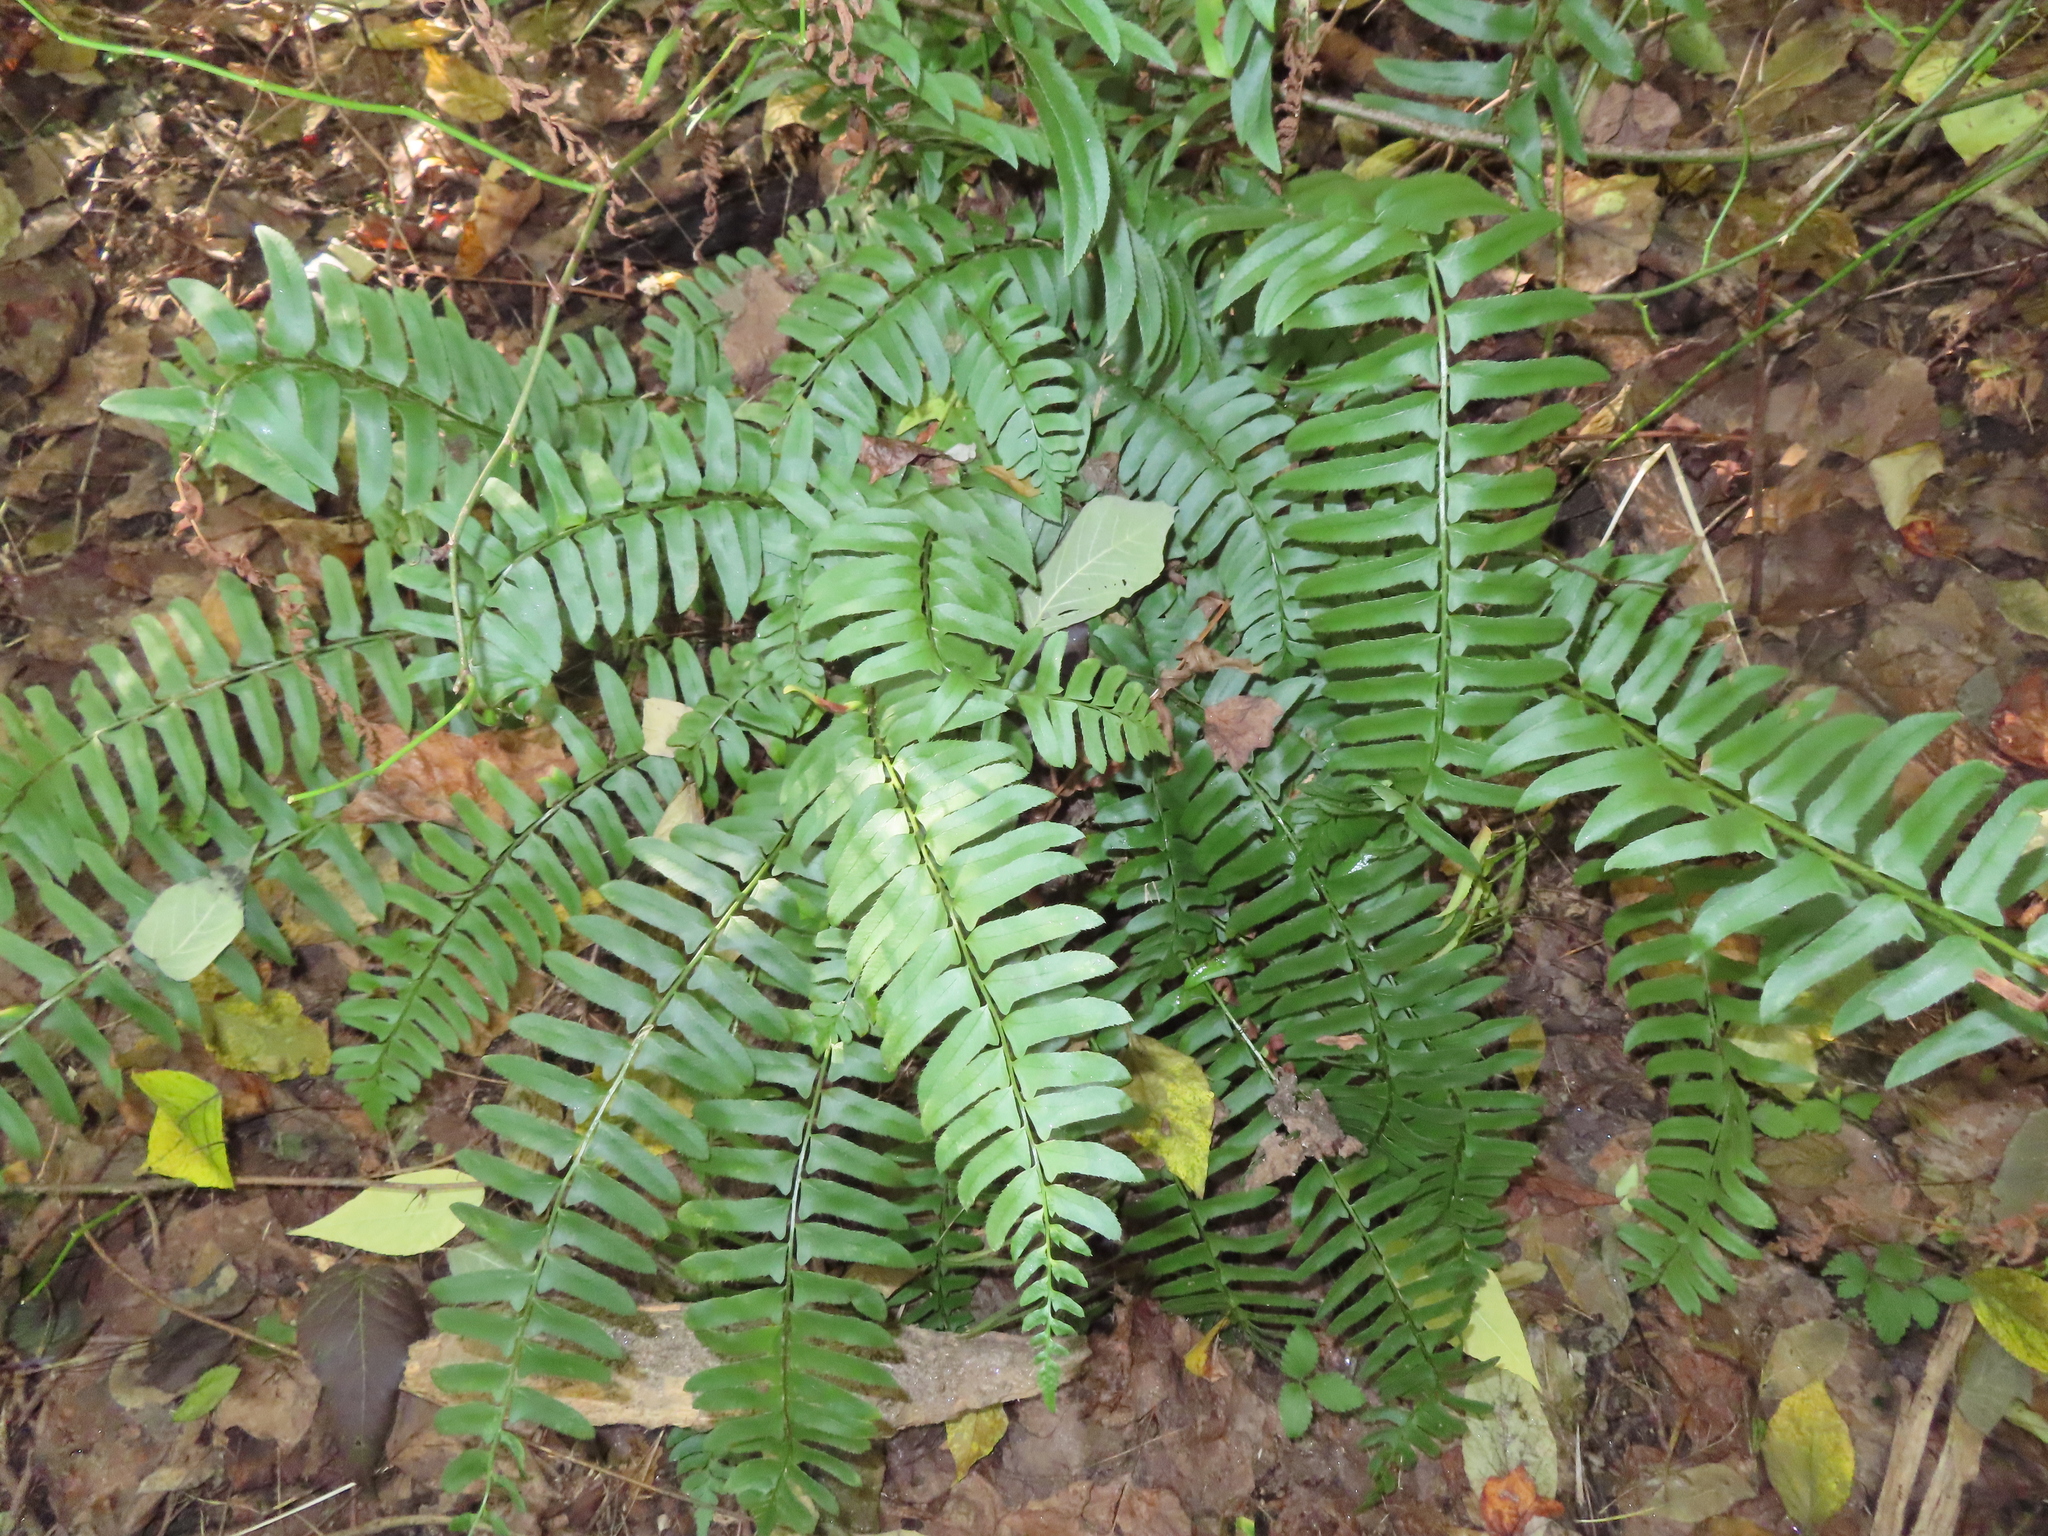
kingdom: Plantae
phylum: Tracheophyta
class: Polypodiopsida
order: Polypodiales
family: Dryopteridaceae
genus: Polystichum
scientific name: Polystichum acrostichoides
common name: Christmas fern
